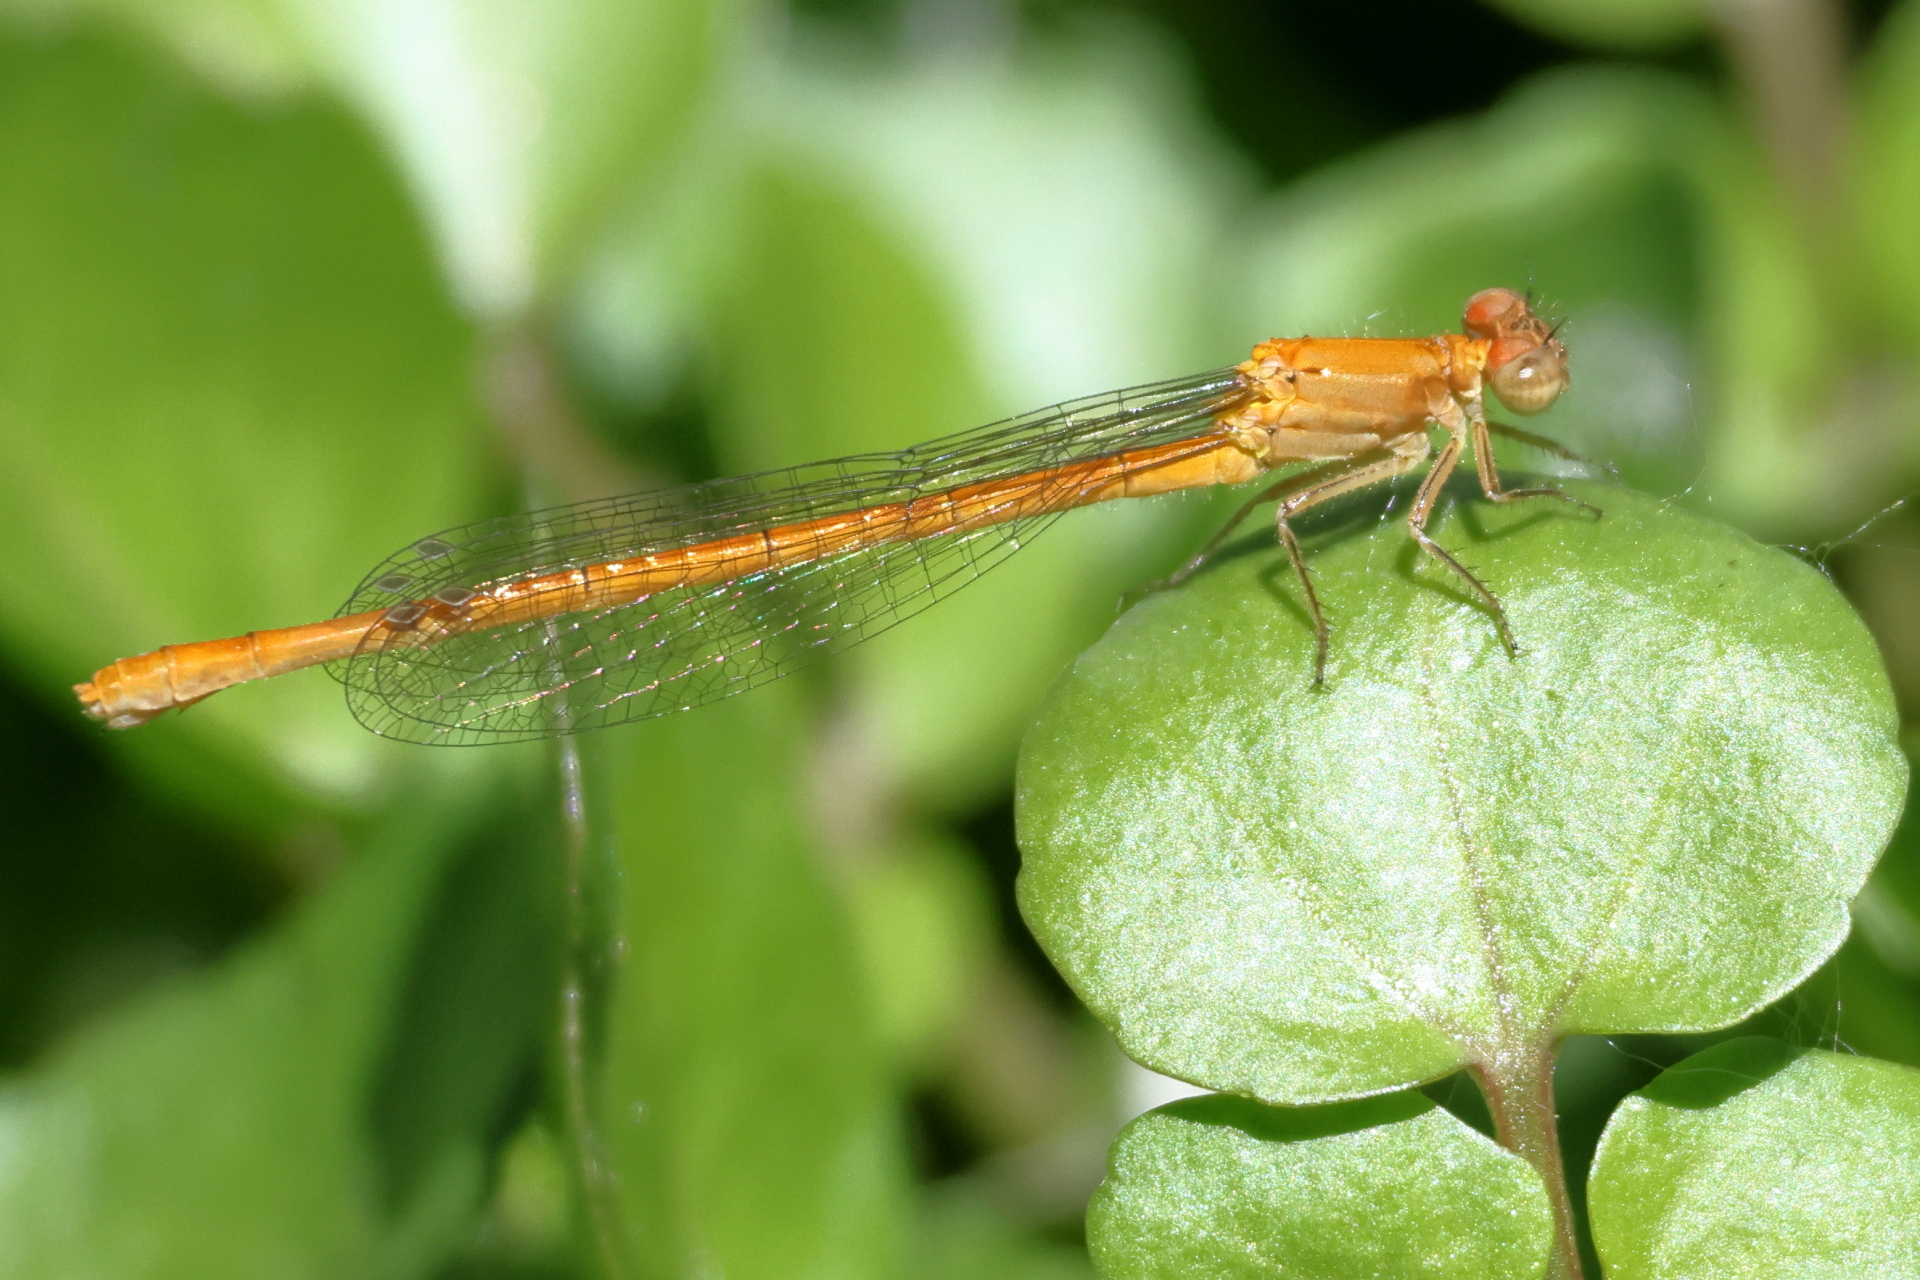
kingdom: Animalia
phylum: Arthropoda
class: Insecta
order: Odonata
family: Coenagrionidae
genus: Hesperagrion
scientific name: Hesperagrion heterodoxum
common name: Painted damsel
